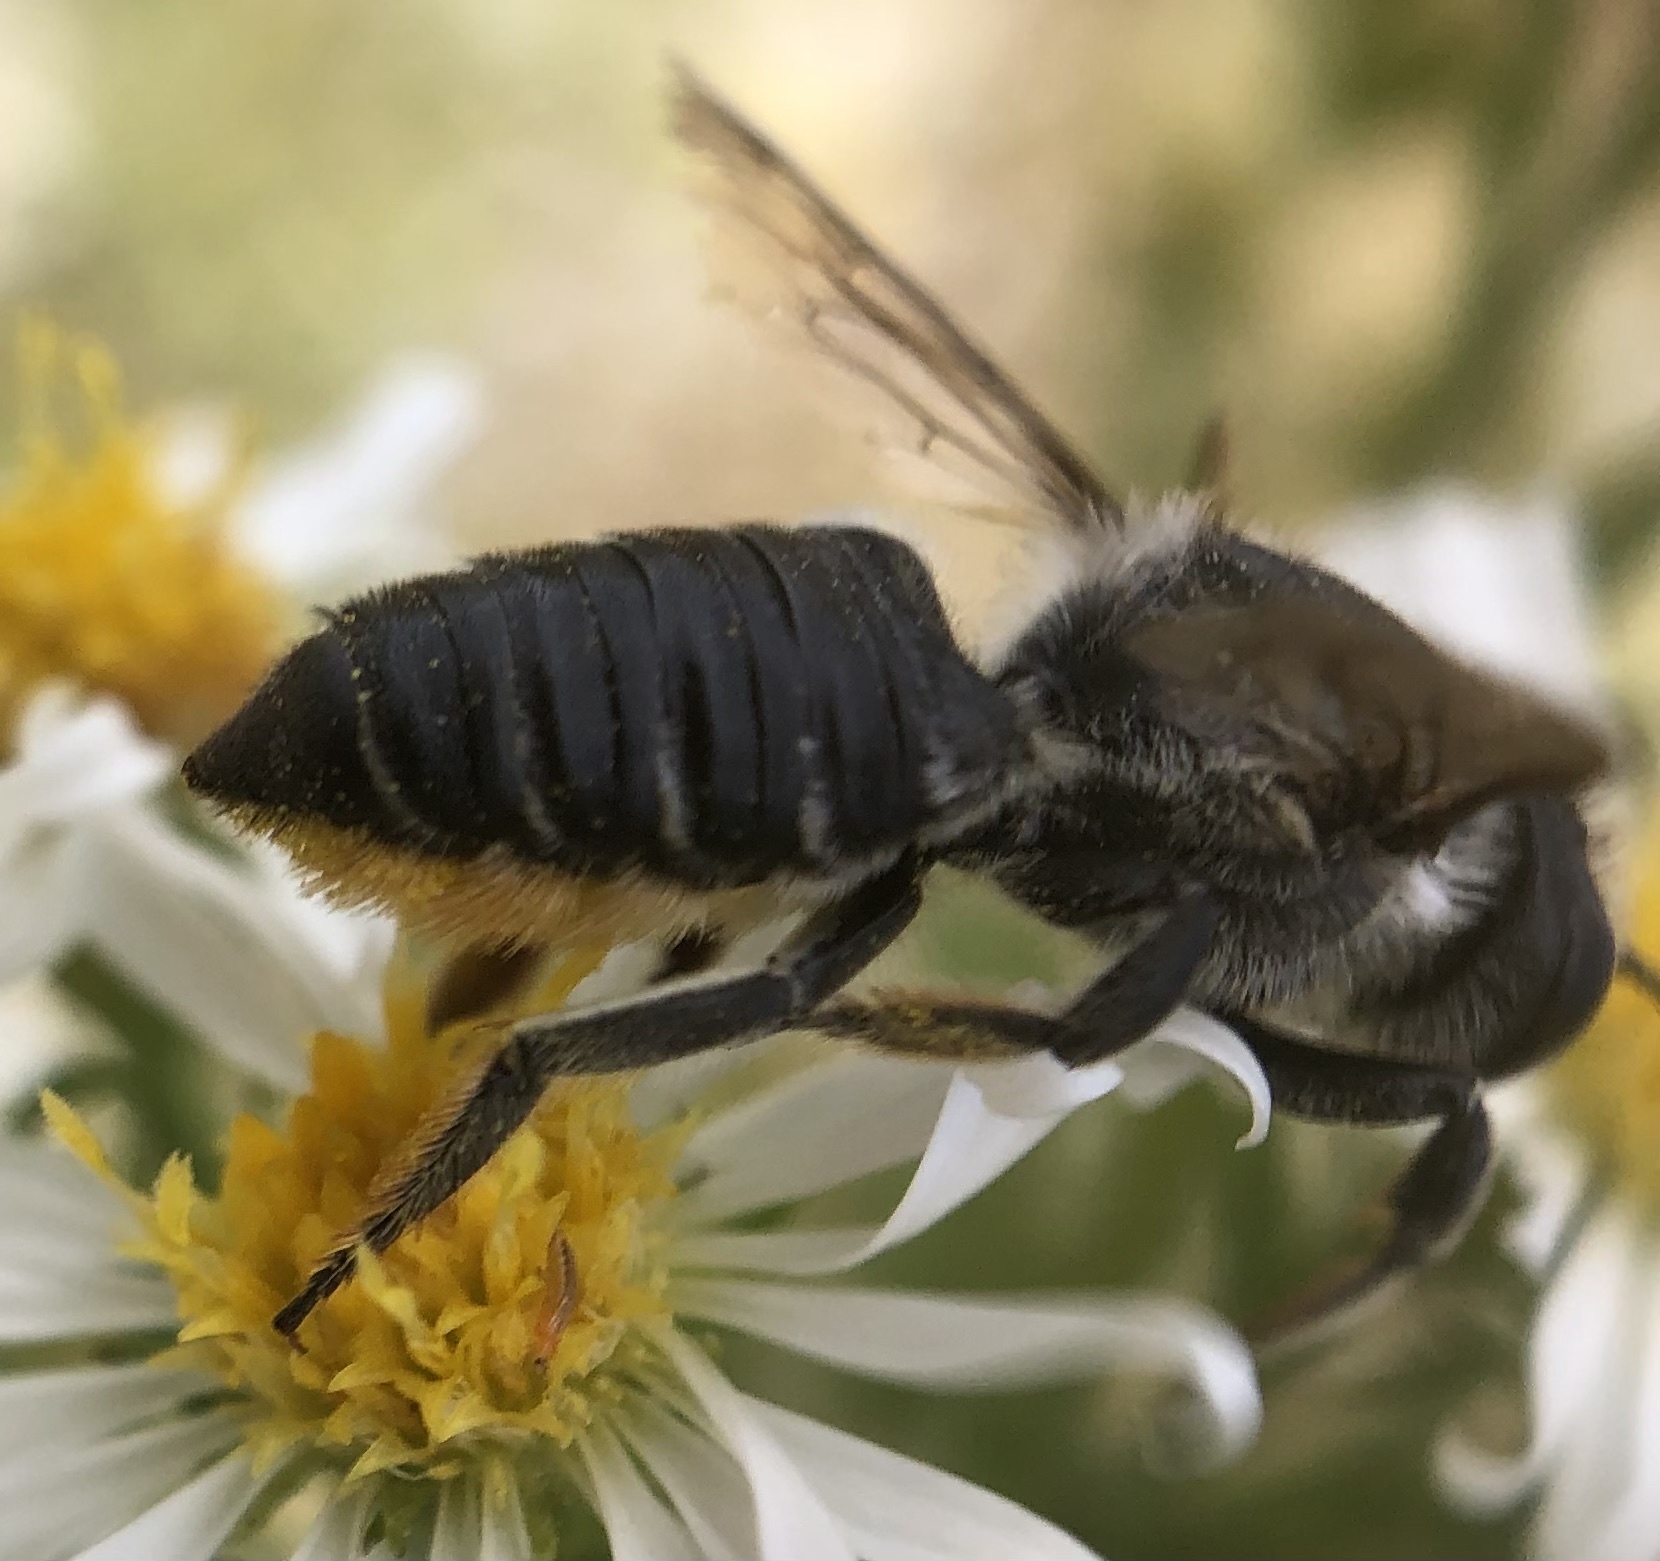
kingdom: Animalia
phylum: Arthropoda
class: Insecta
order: Hymenoptera
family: Megachilidae
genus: Megachile
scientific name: Megachile mendica
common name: Flat-tailed leafcutter
